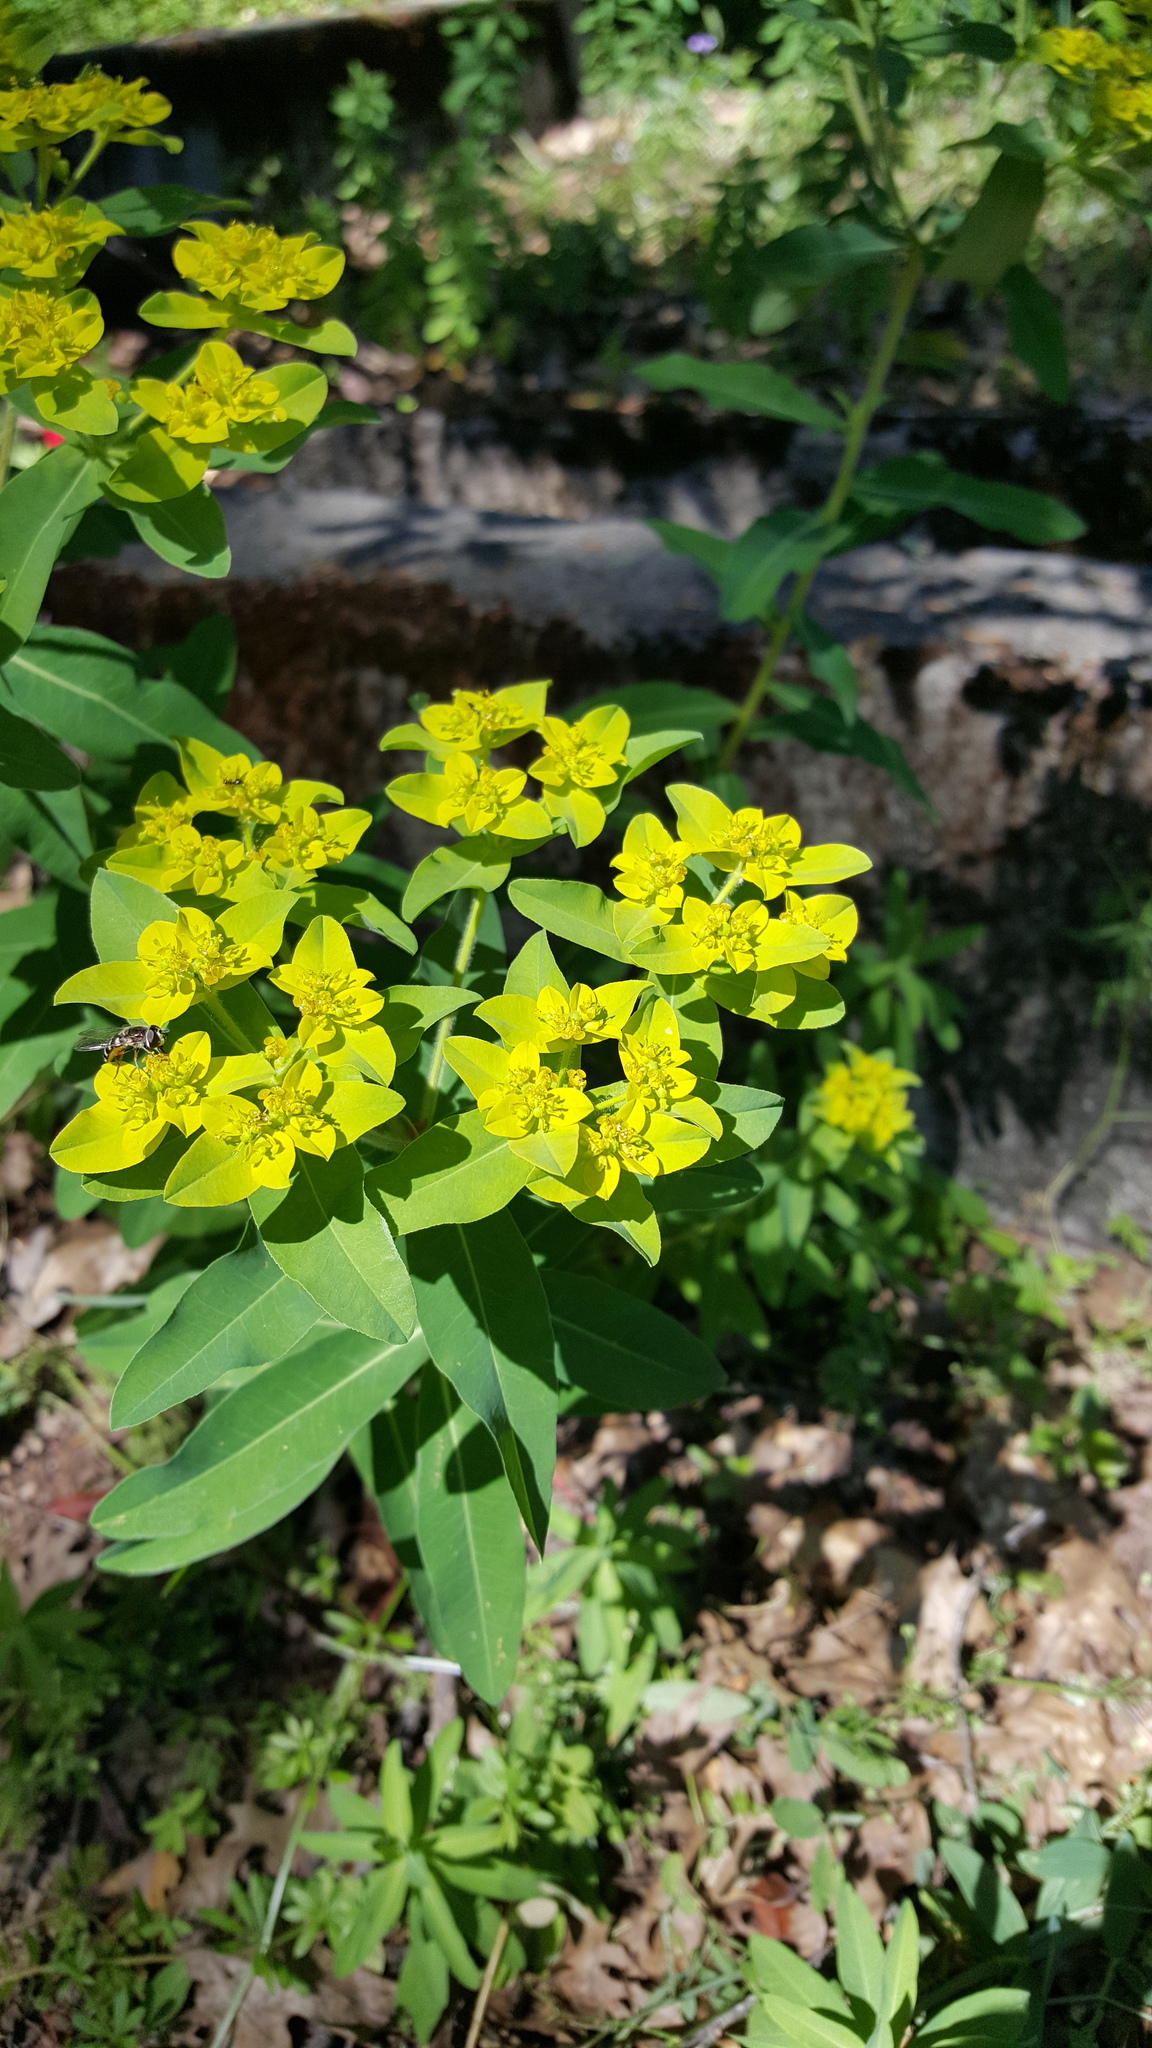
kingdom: Plantae
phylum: Tracheophyta
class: Magnoliopsida
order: Malpighiales
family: Euphorbiaceae
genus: Euphorbia
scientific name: Euphorbia oblongata
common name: Balkan spurge
